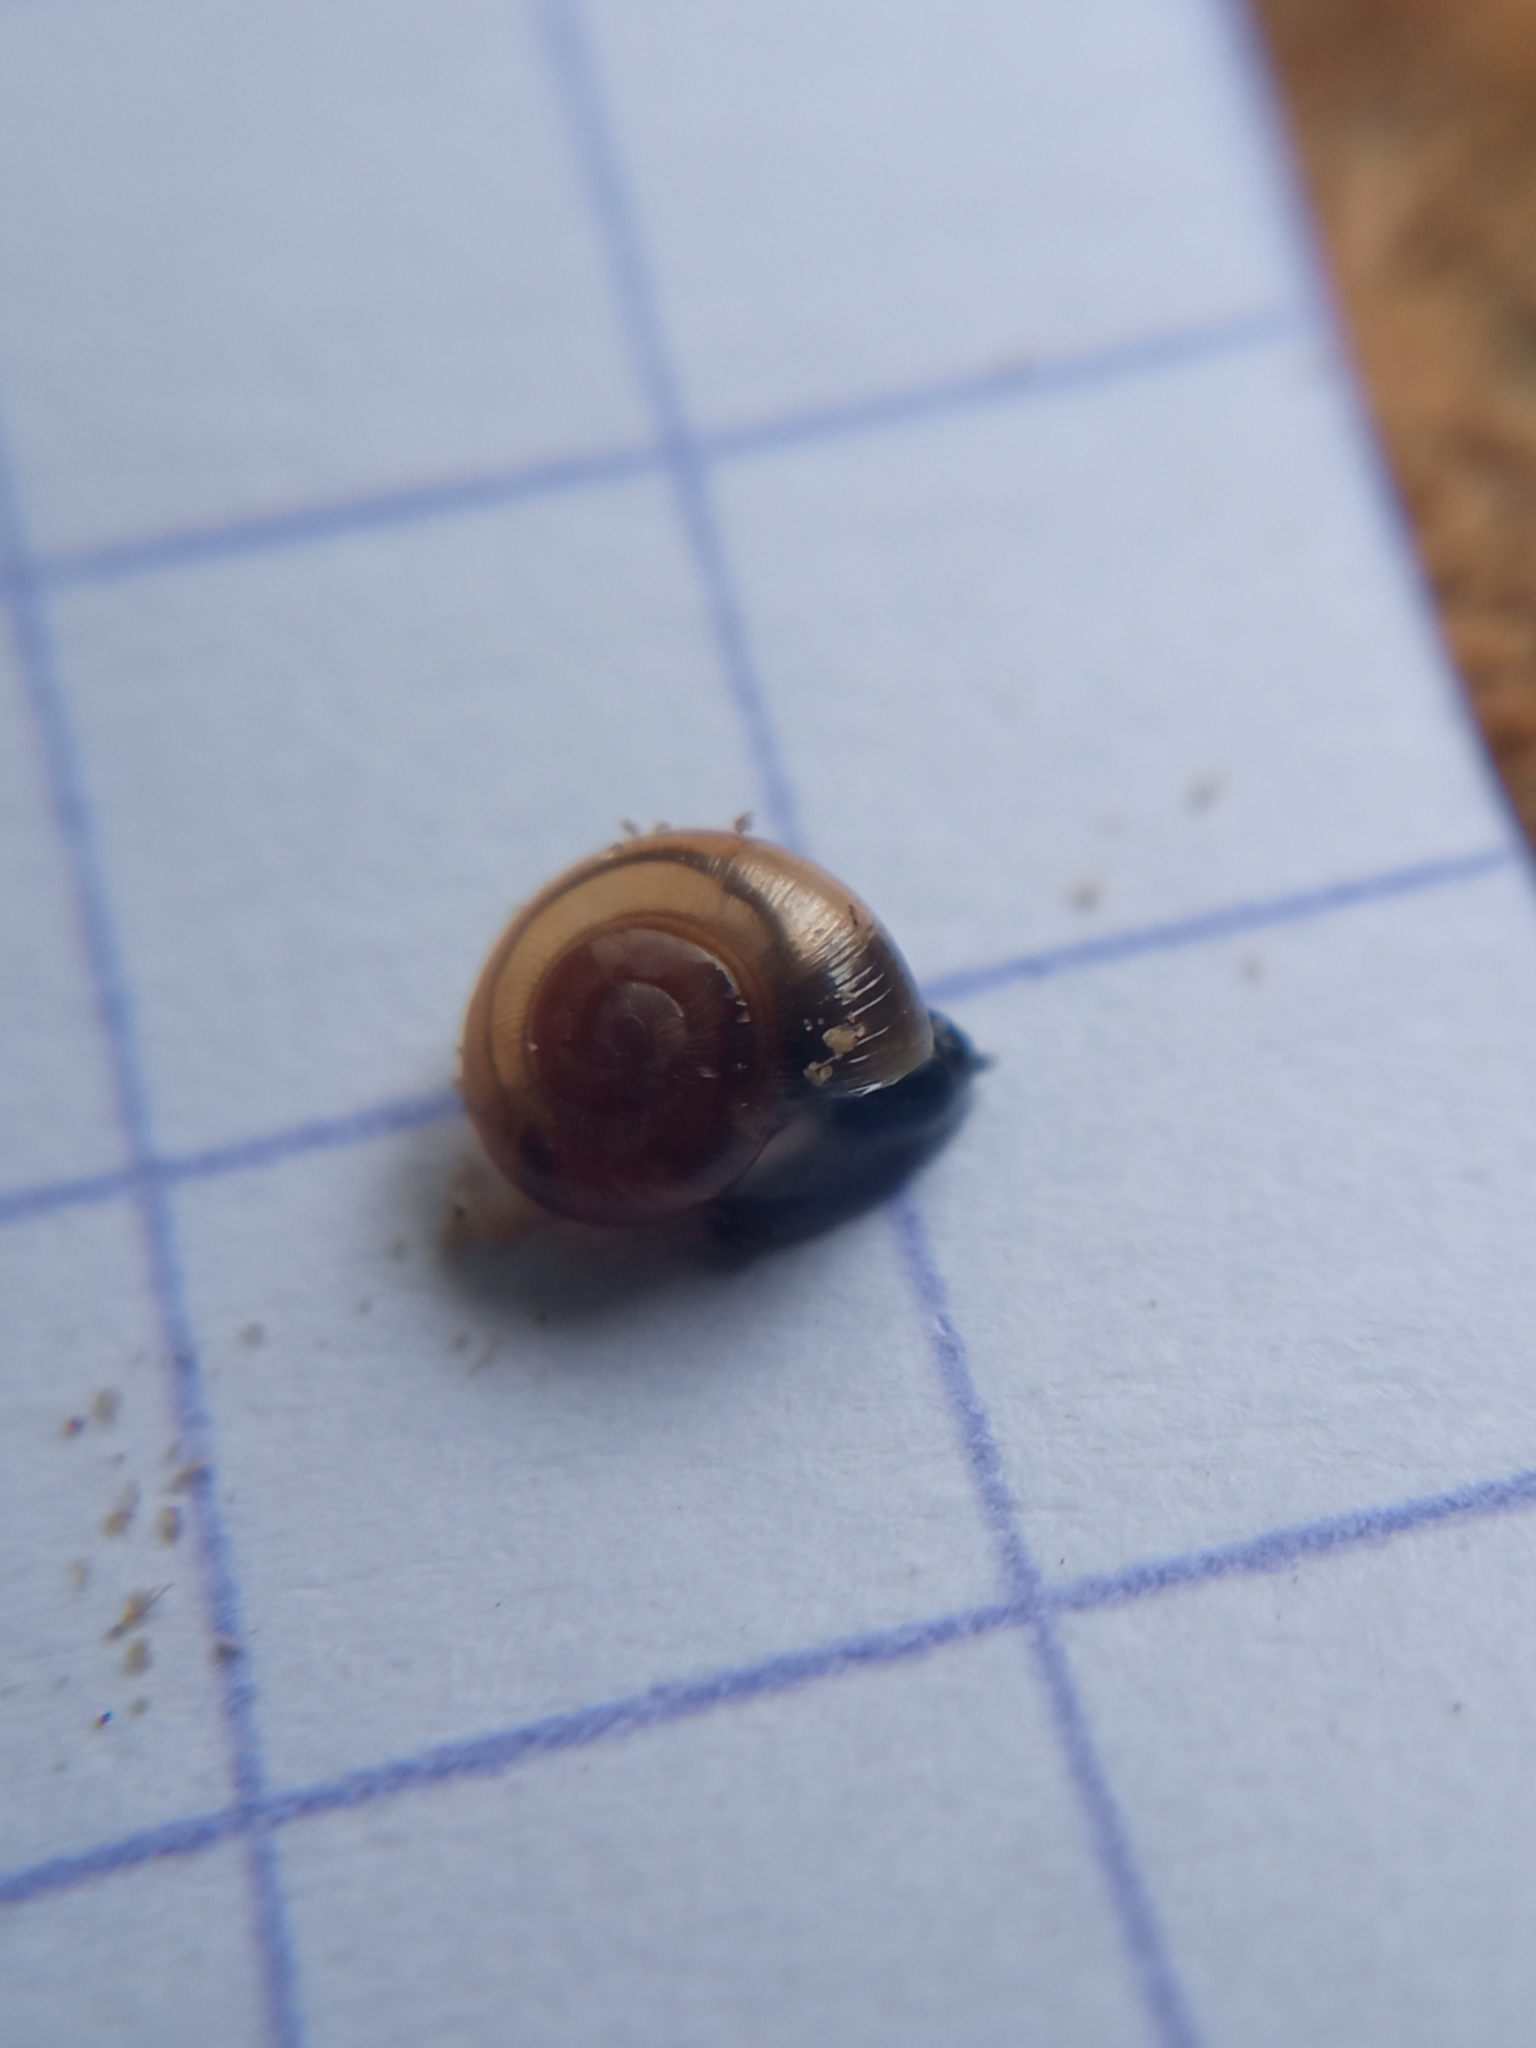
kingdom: Animalia
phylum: Mollusca
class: Gastropoda
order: Stylommatophora
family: Gastrodontidae
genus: Perpolita
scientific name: Perpolita hammonis
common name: Rayed glass snail
